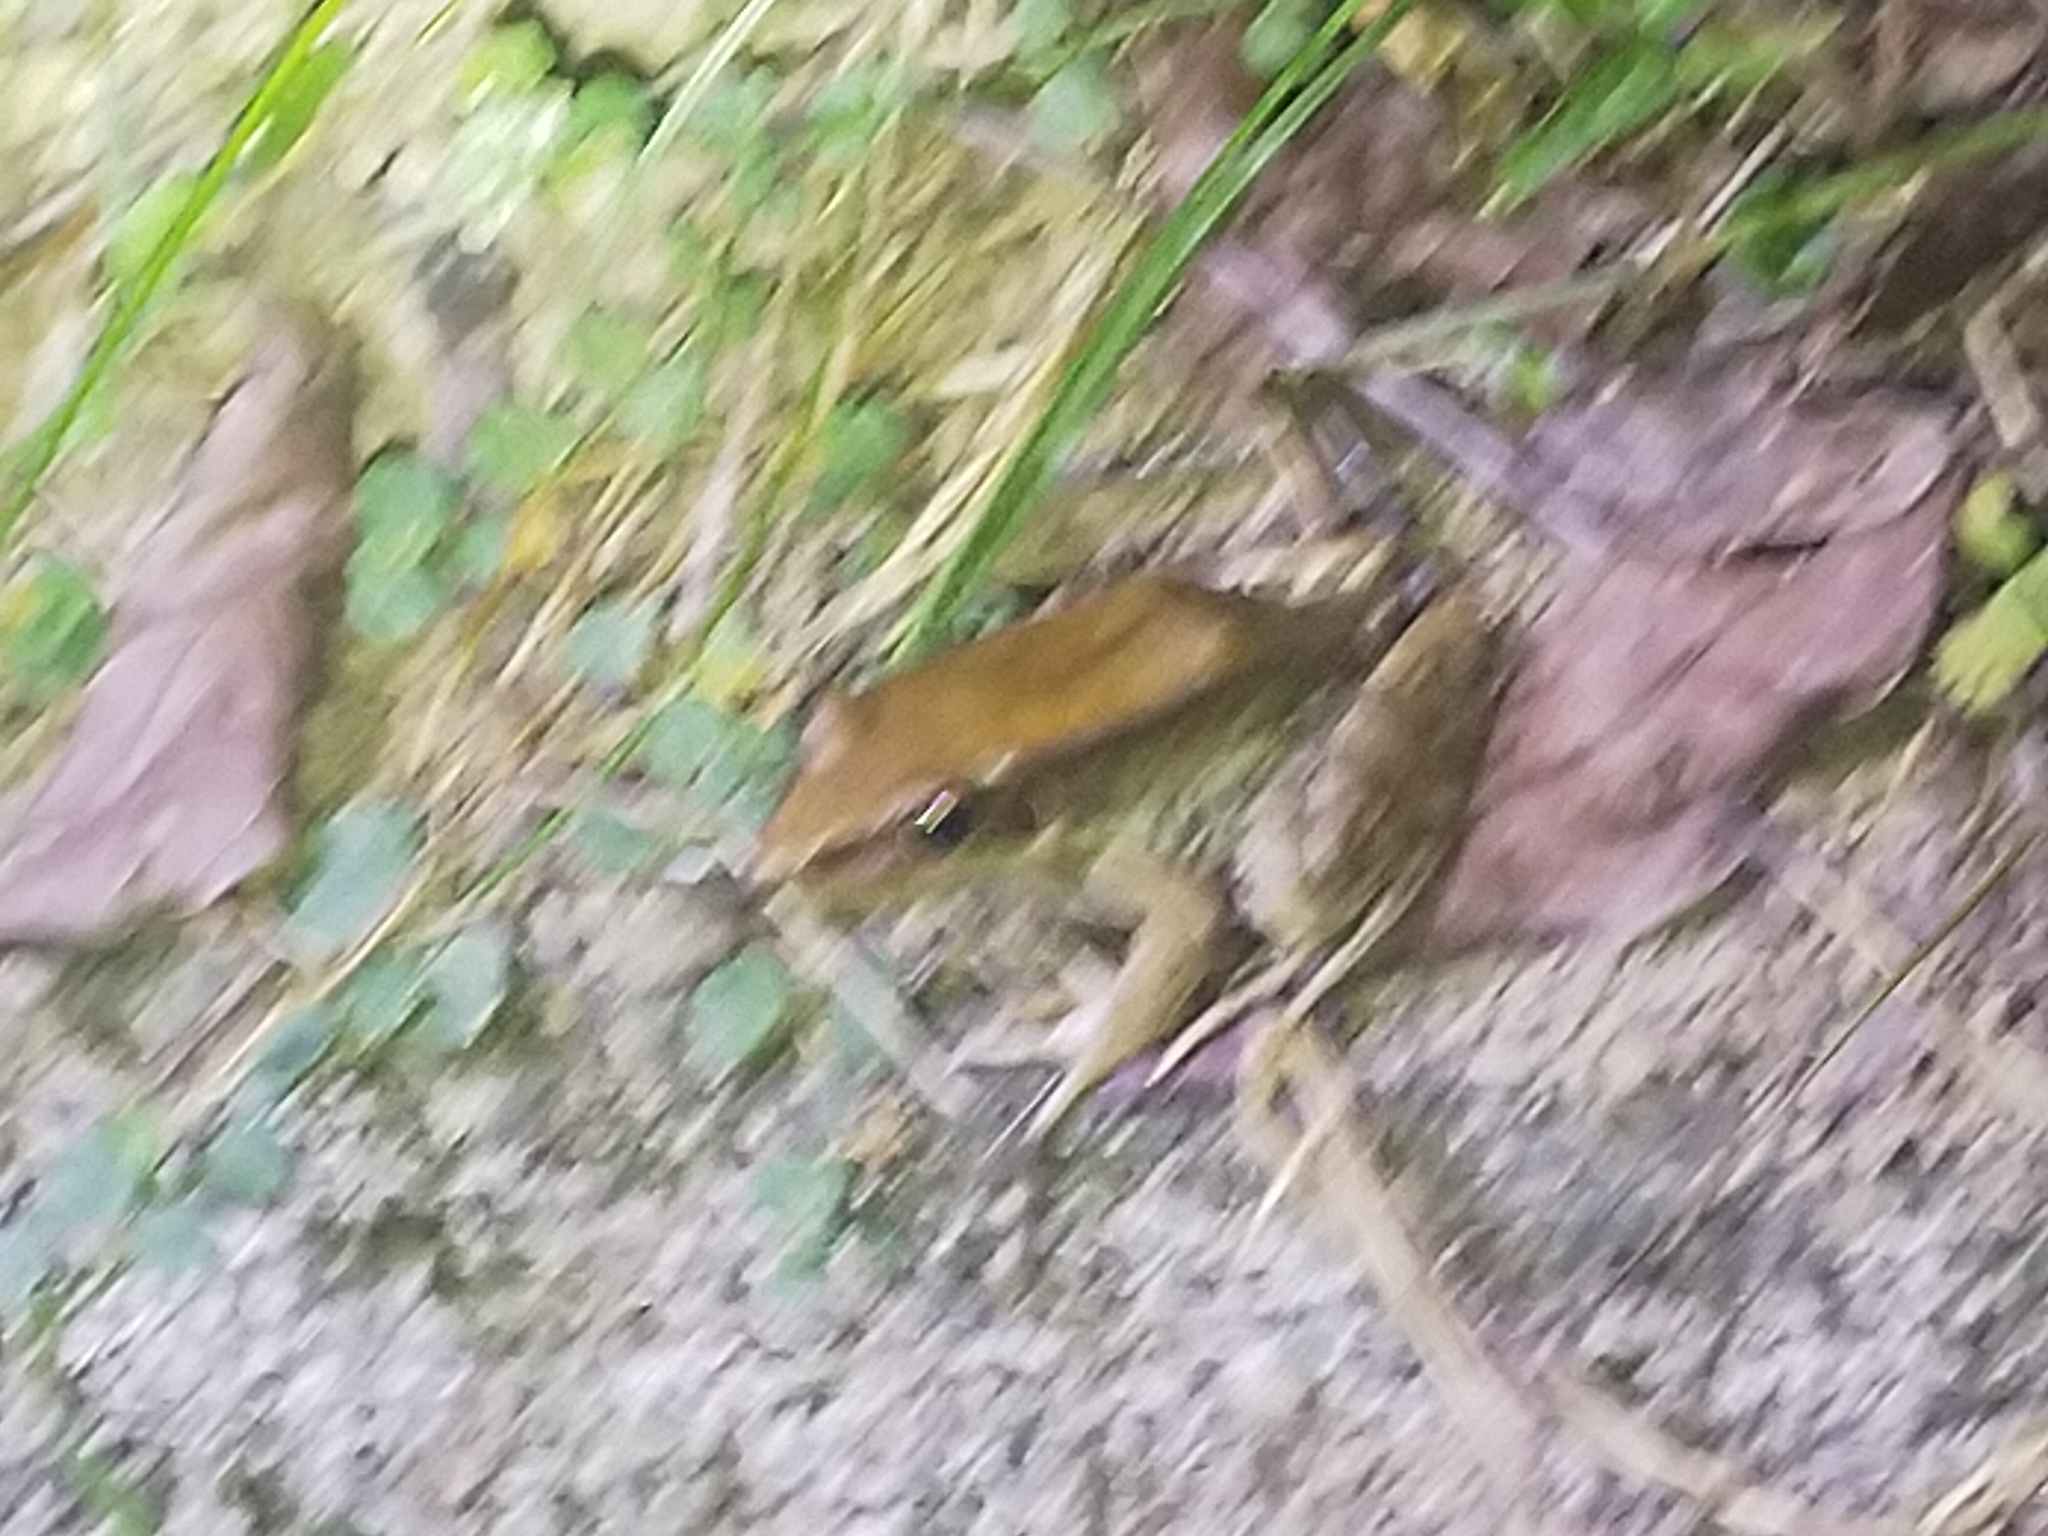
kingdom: Animalia
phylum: Chordata
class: Amphibia
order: Anura
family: Ranidae
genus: Sylvirana
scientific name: Sylvirana guentheri
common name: Guenther's amoy frog
